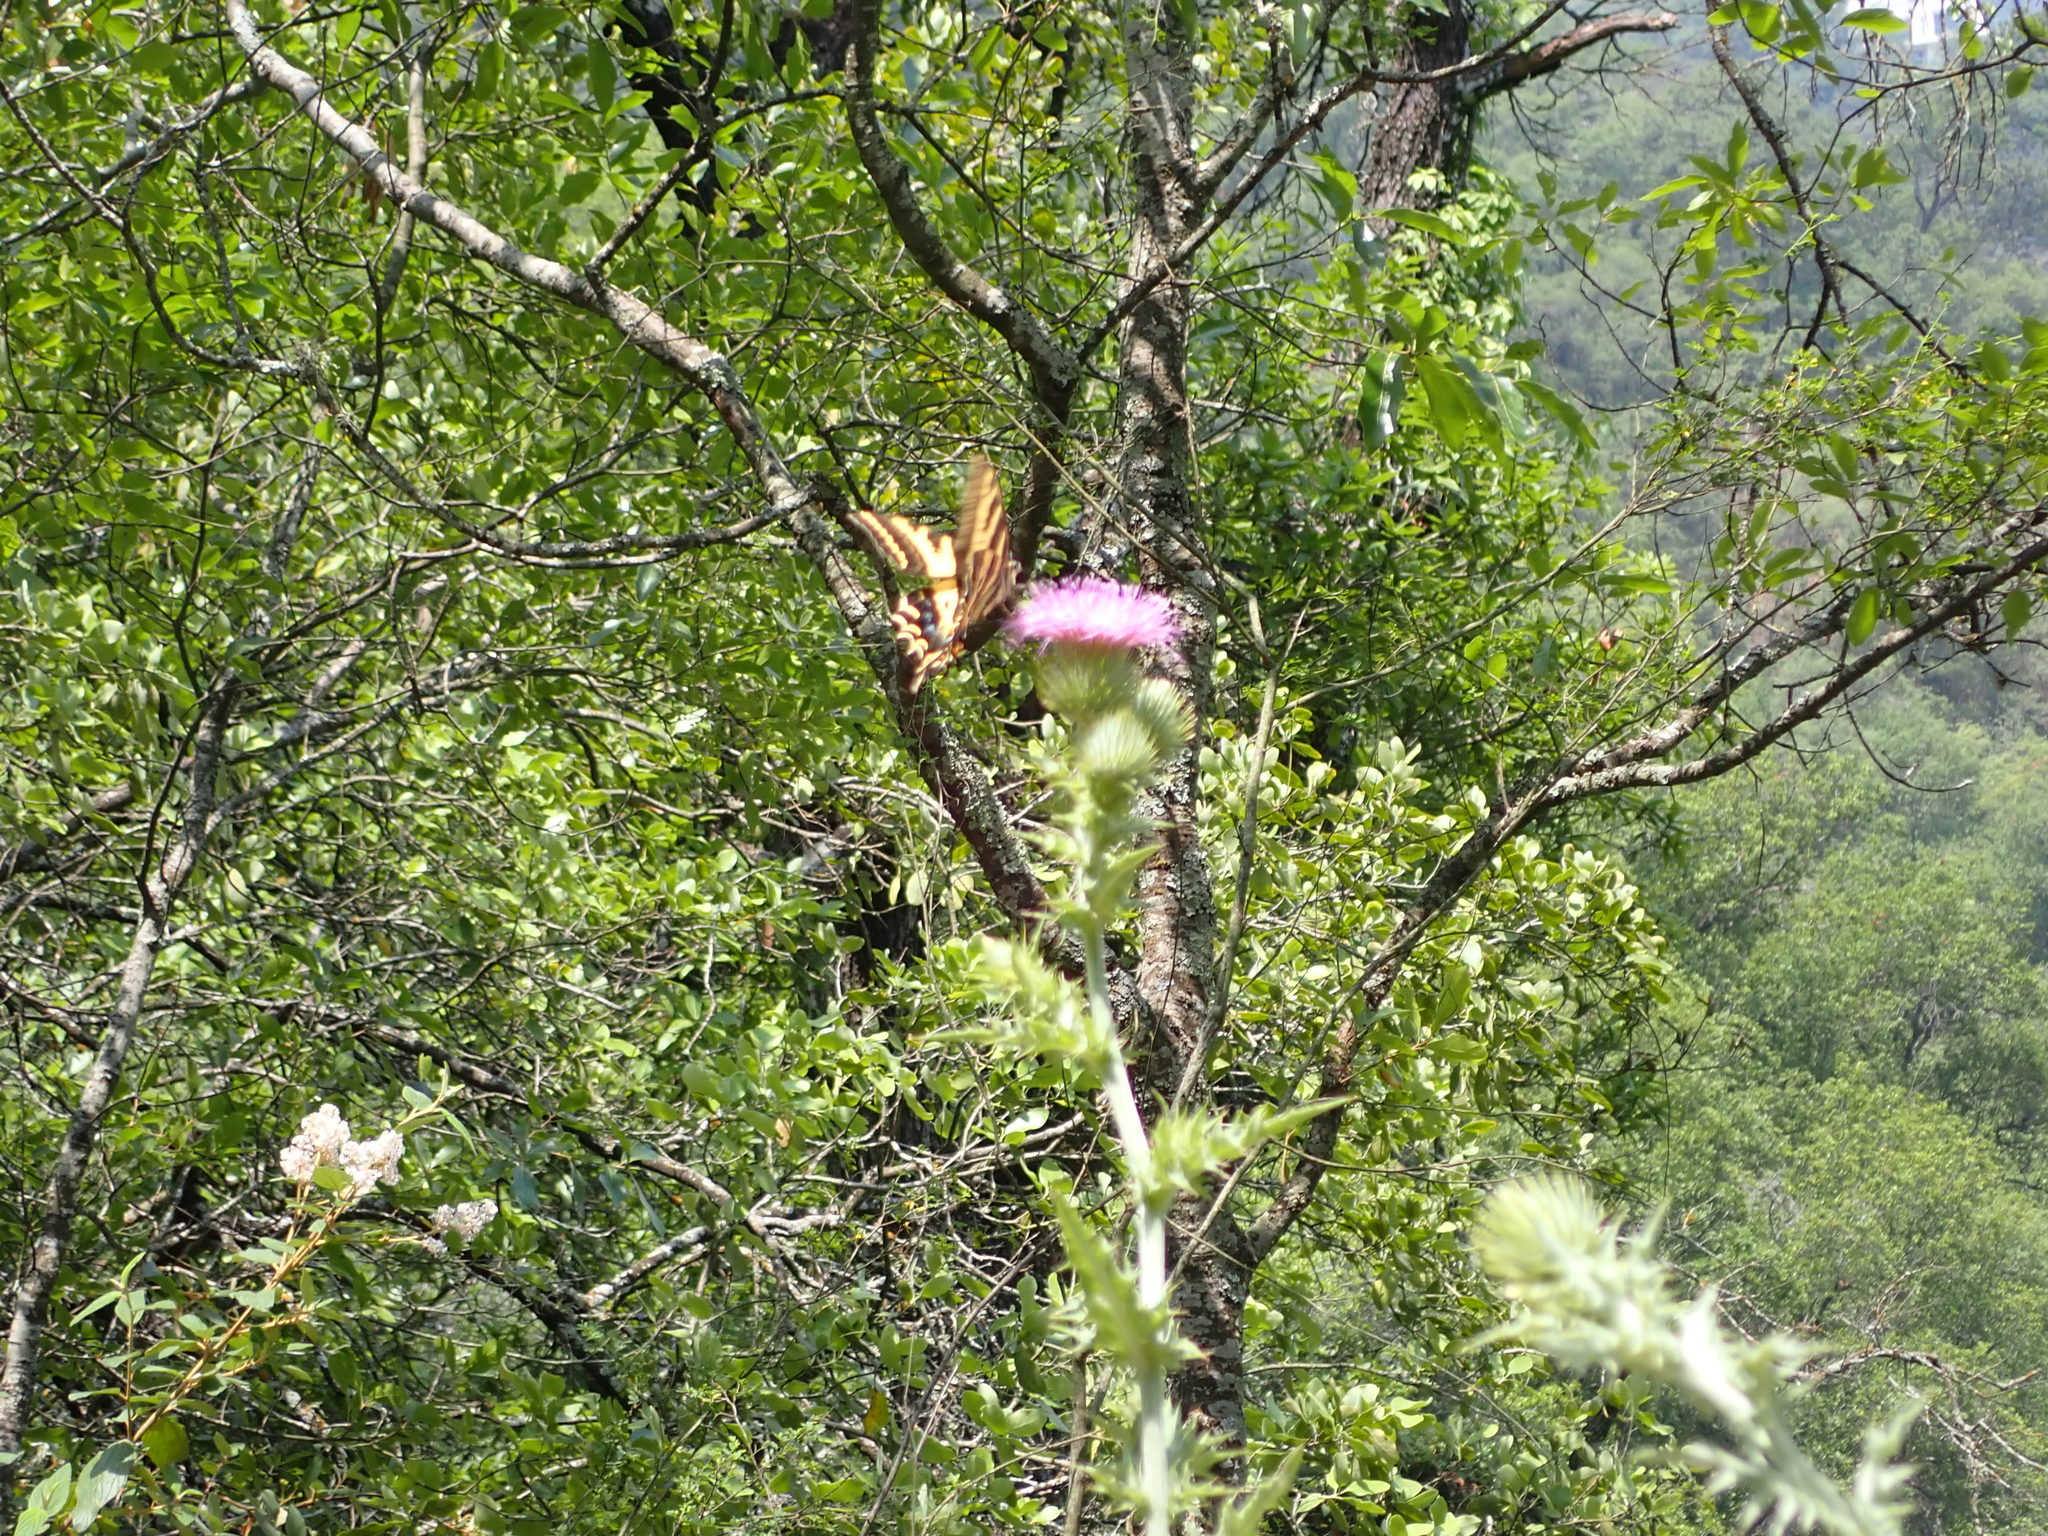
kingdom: Animalia
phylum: Arthropoda
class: Insecta
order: Lepidoptera
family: Papilionidae
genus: Papilio
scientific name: Papilio pilumnus
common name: Three-tailed tiger swallowtail
